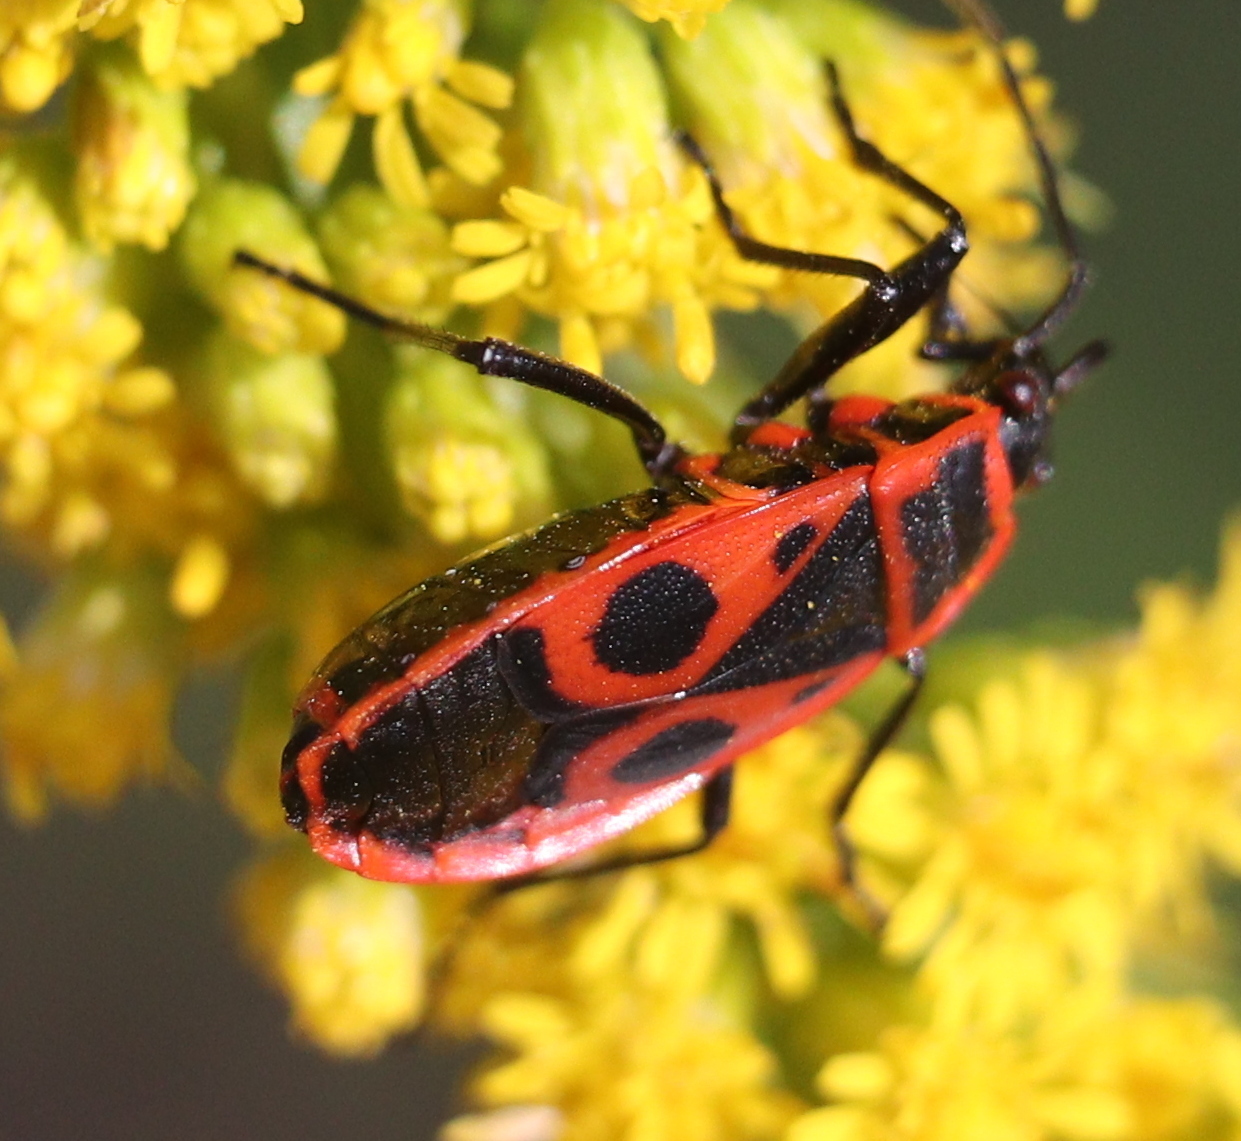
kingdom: Animalia
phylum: Arthropoda
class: Insecta
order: Hemiptera
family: Pyrrhocoridae
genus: Pyrrhocoris
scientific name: Pyrrhocoris apterus
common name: Firebug
